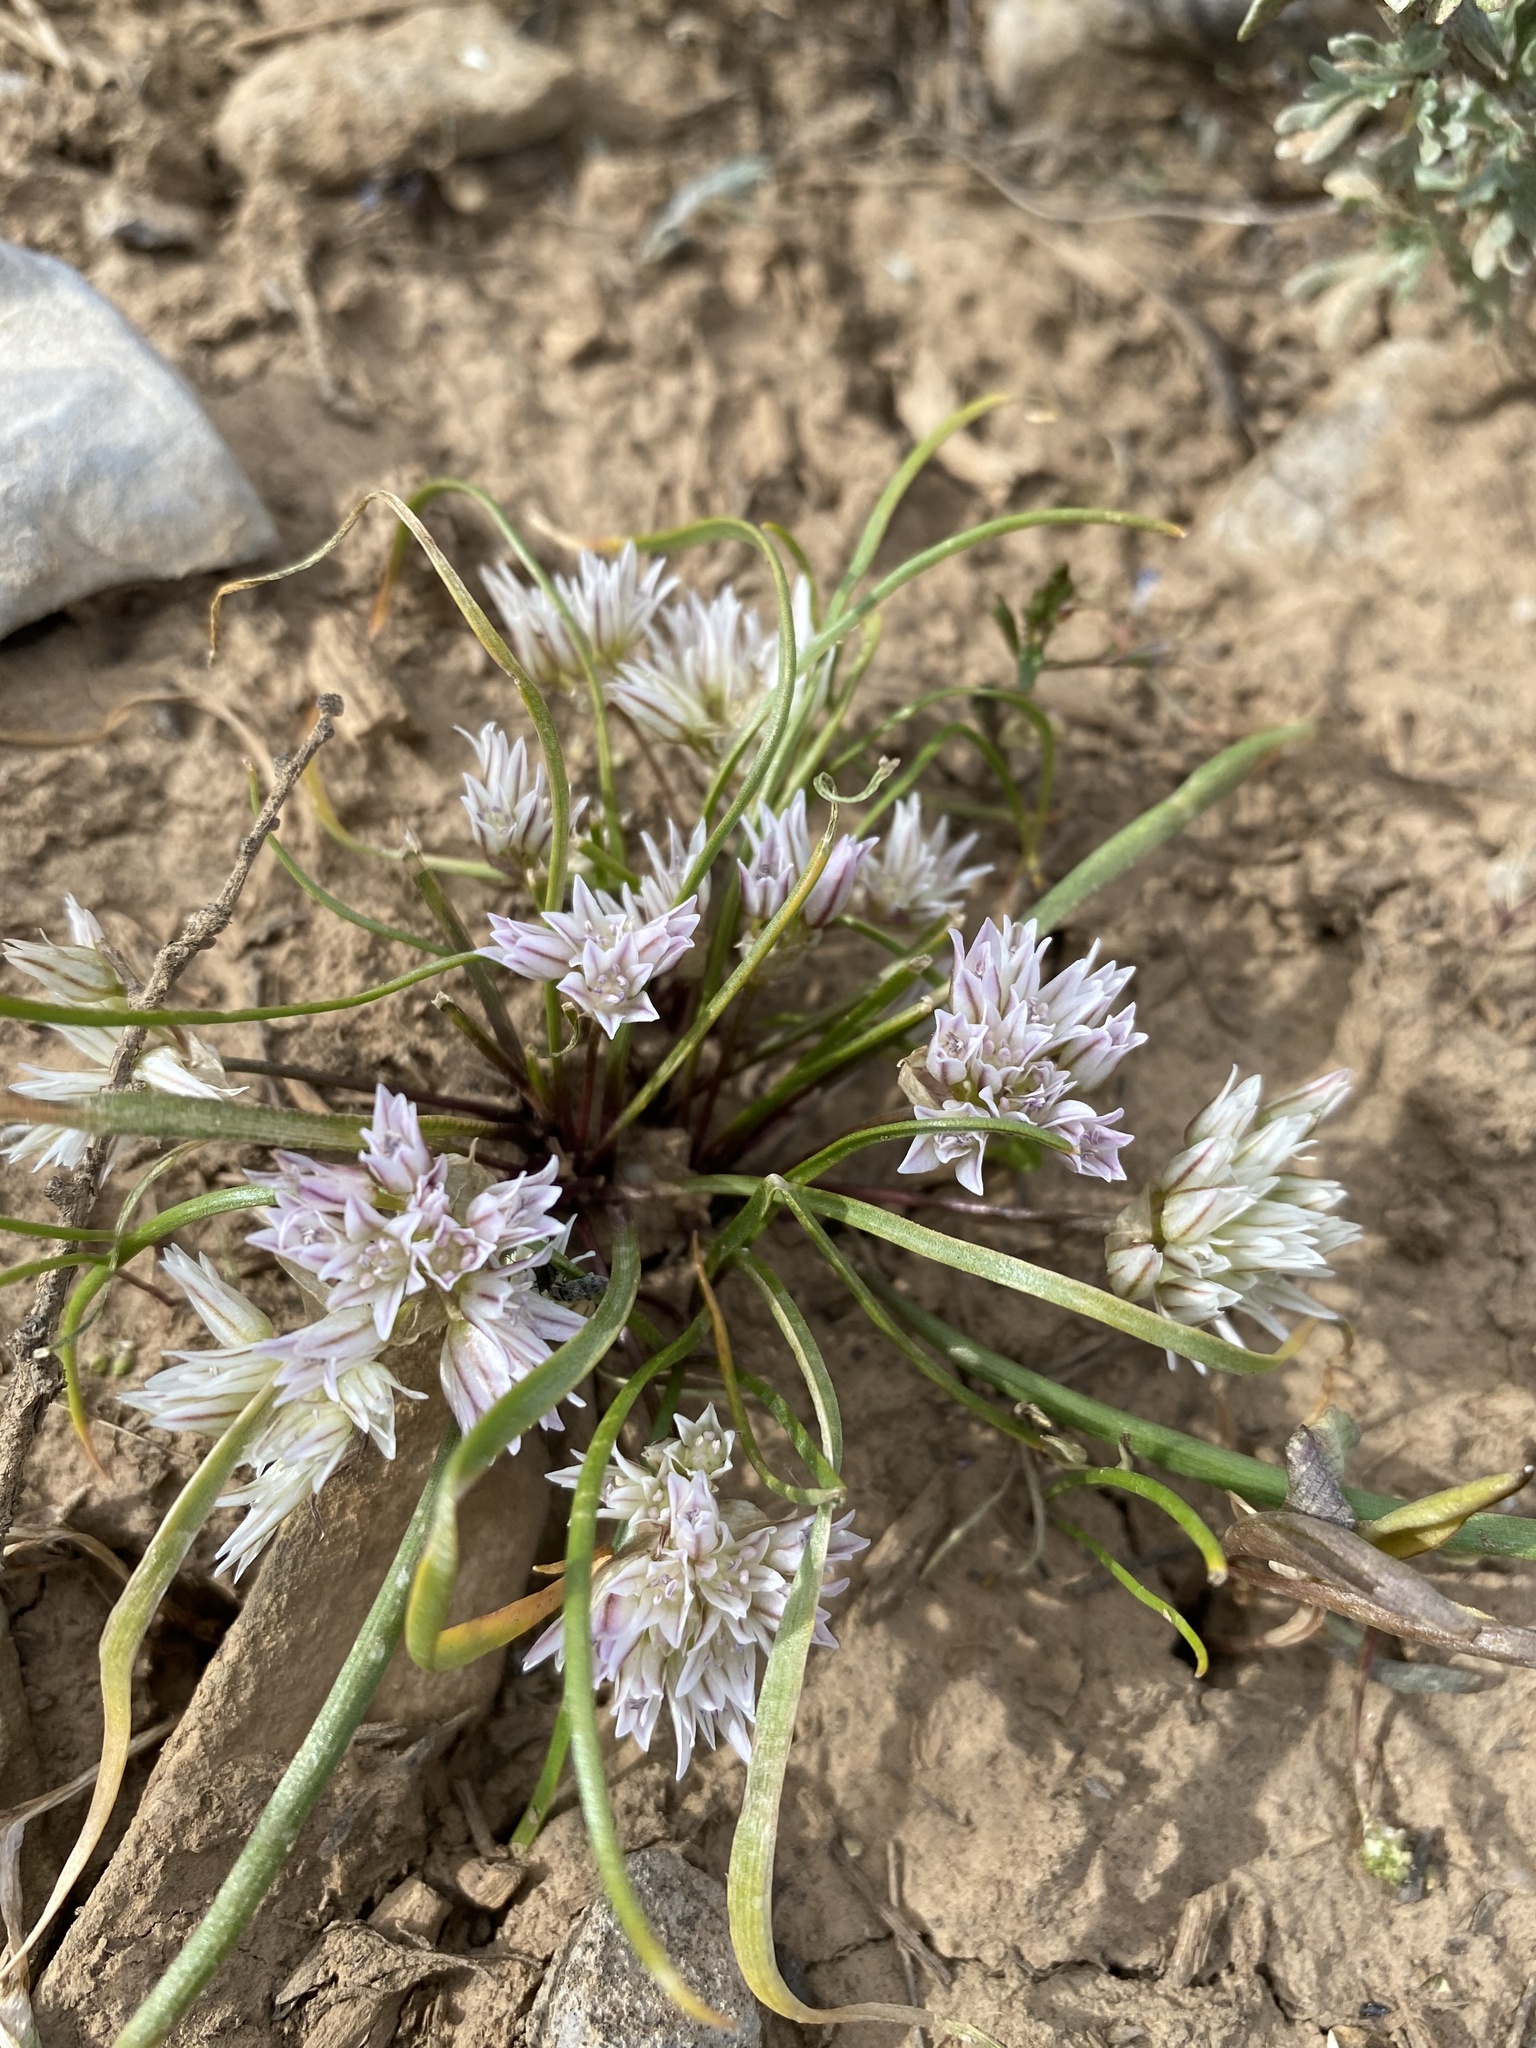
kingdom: Plantae
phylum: Tracheophyta
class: Liliopsida
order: Asparagales
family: Amaryllidaceae
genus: Allium
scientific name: Allium brandegeei
